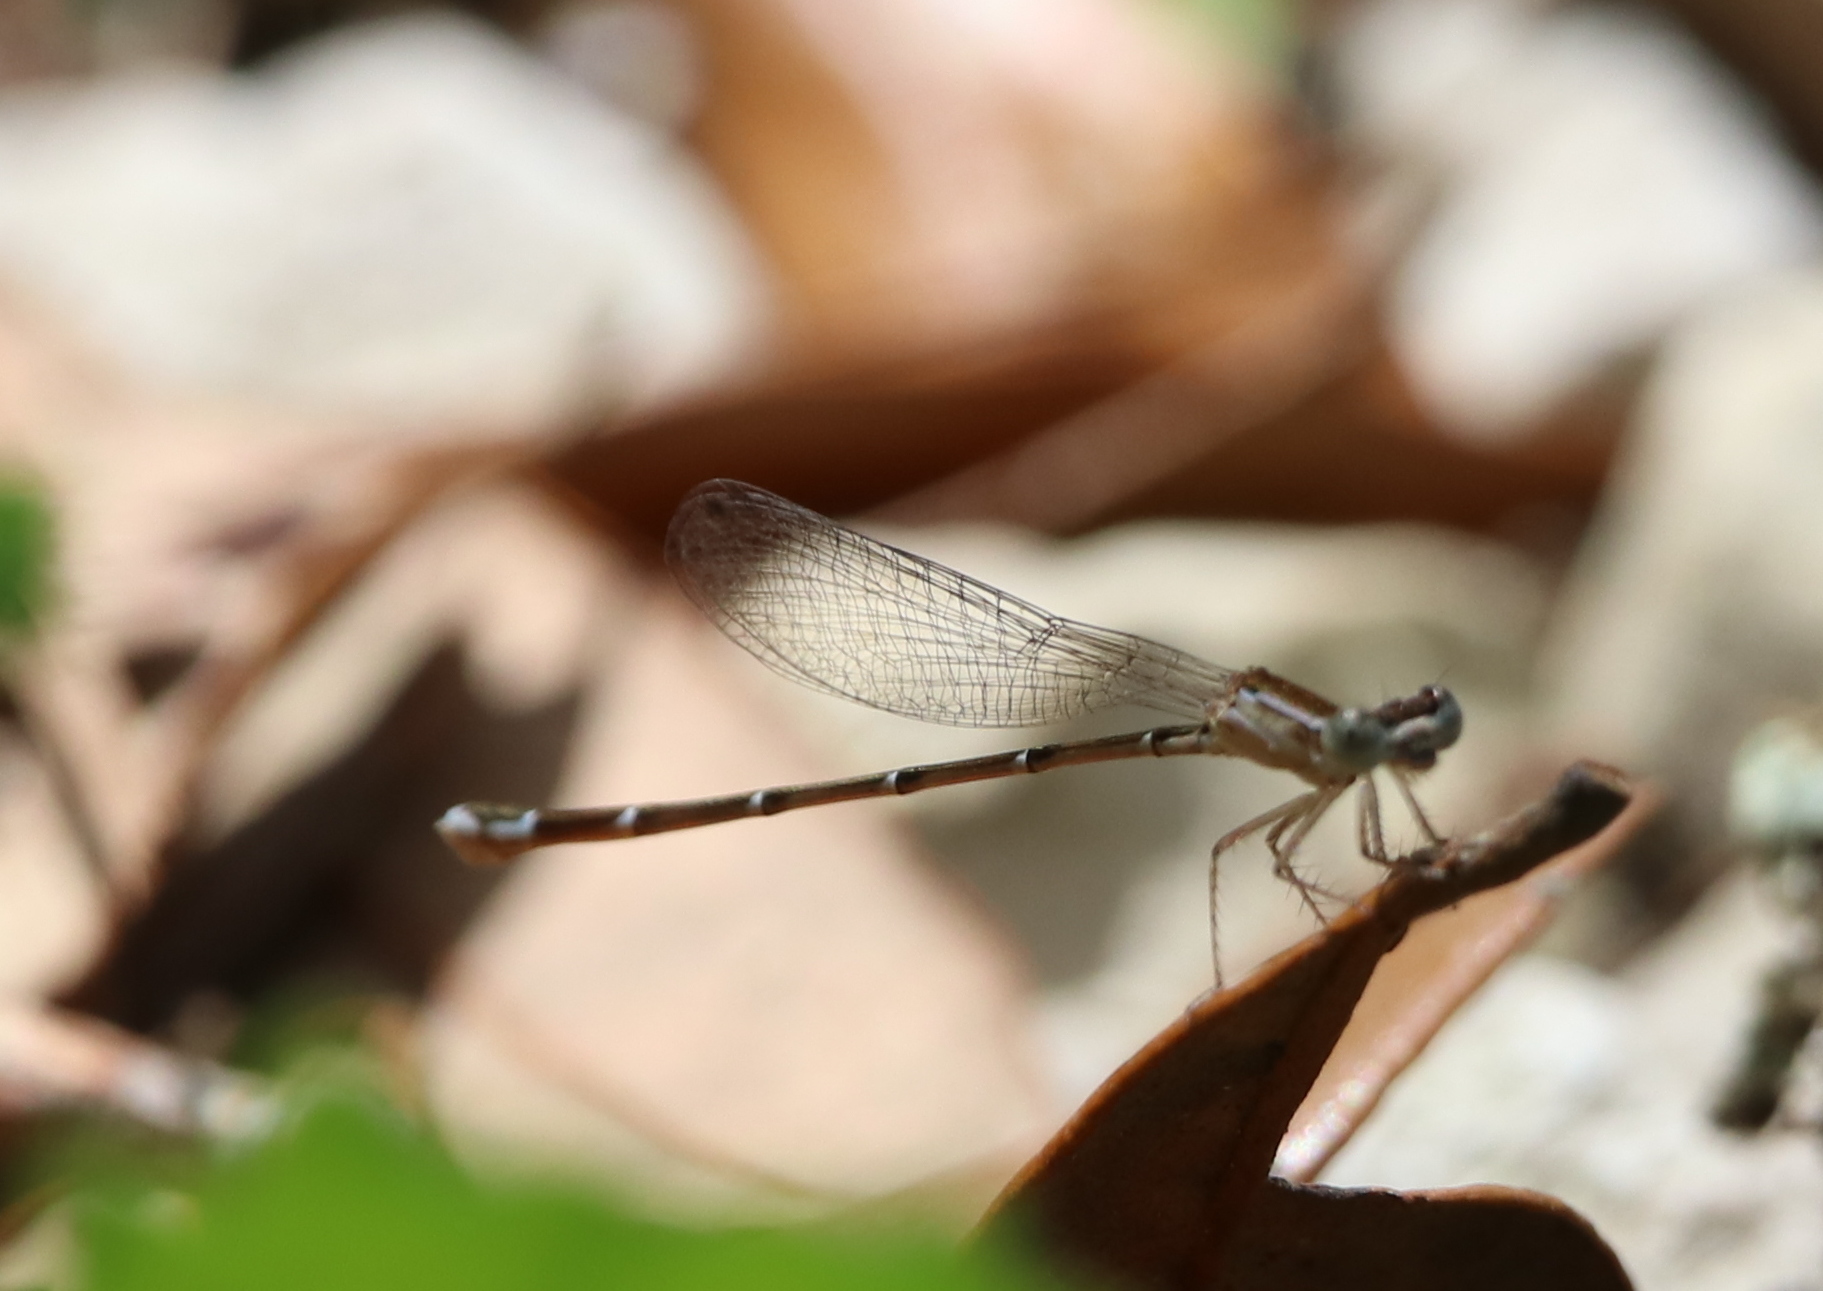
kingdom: Animalia
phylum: Arthropoda
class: Insecta
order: Odonata
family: Coenagrionidae
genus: Argia
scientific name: Argia tibialis
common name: Blue-tipped dancer
